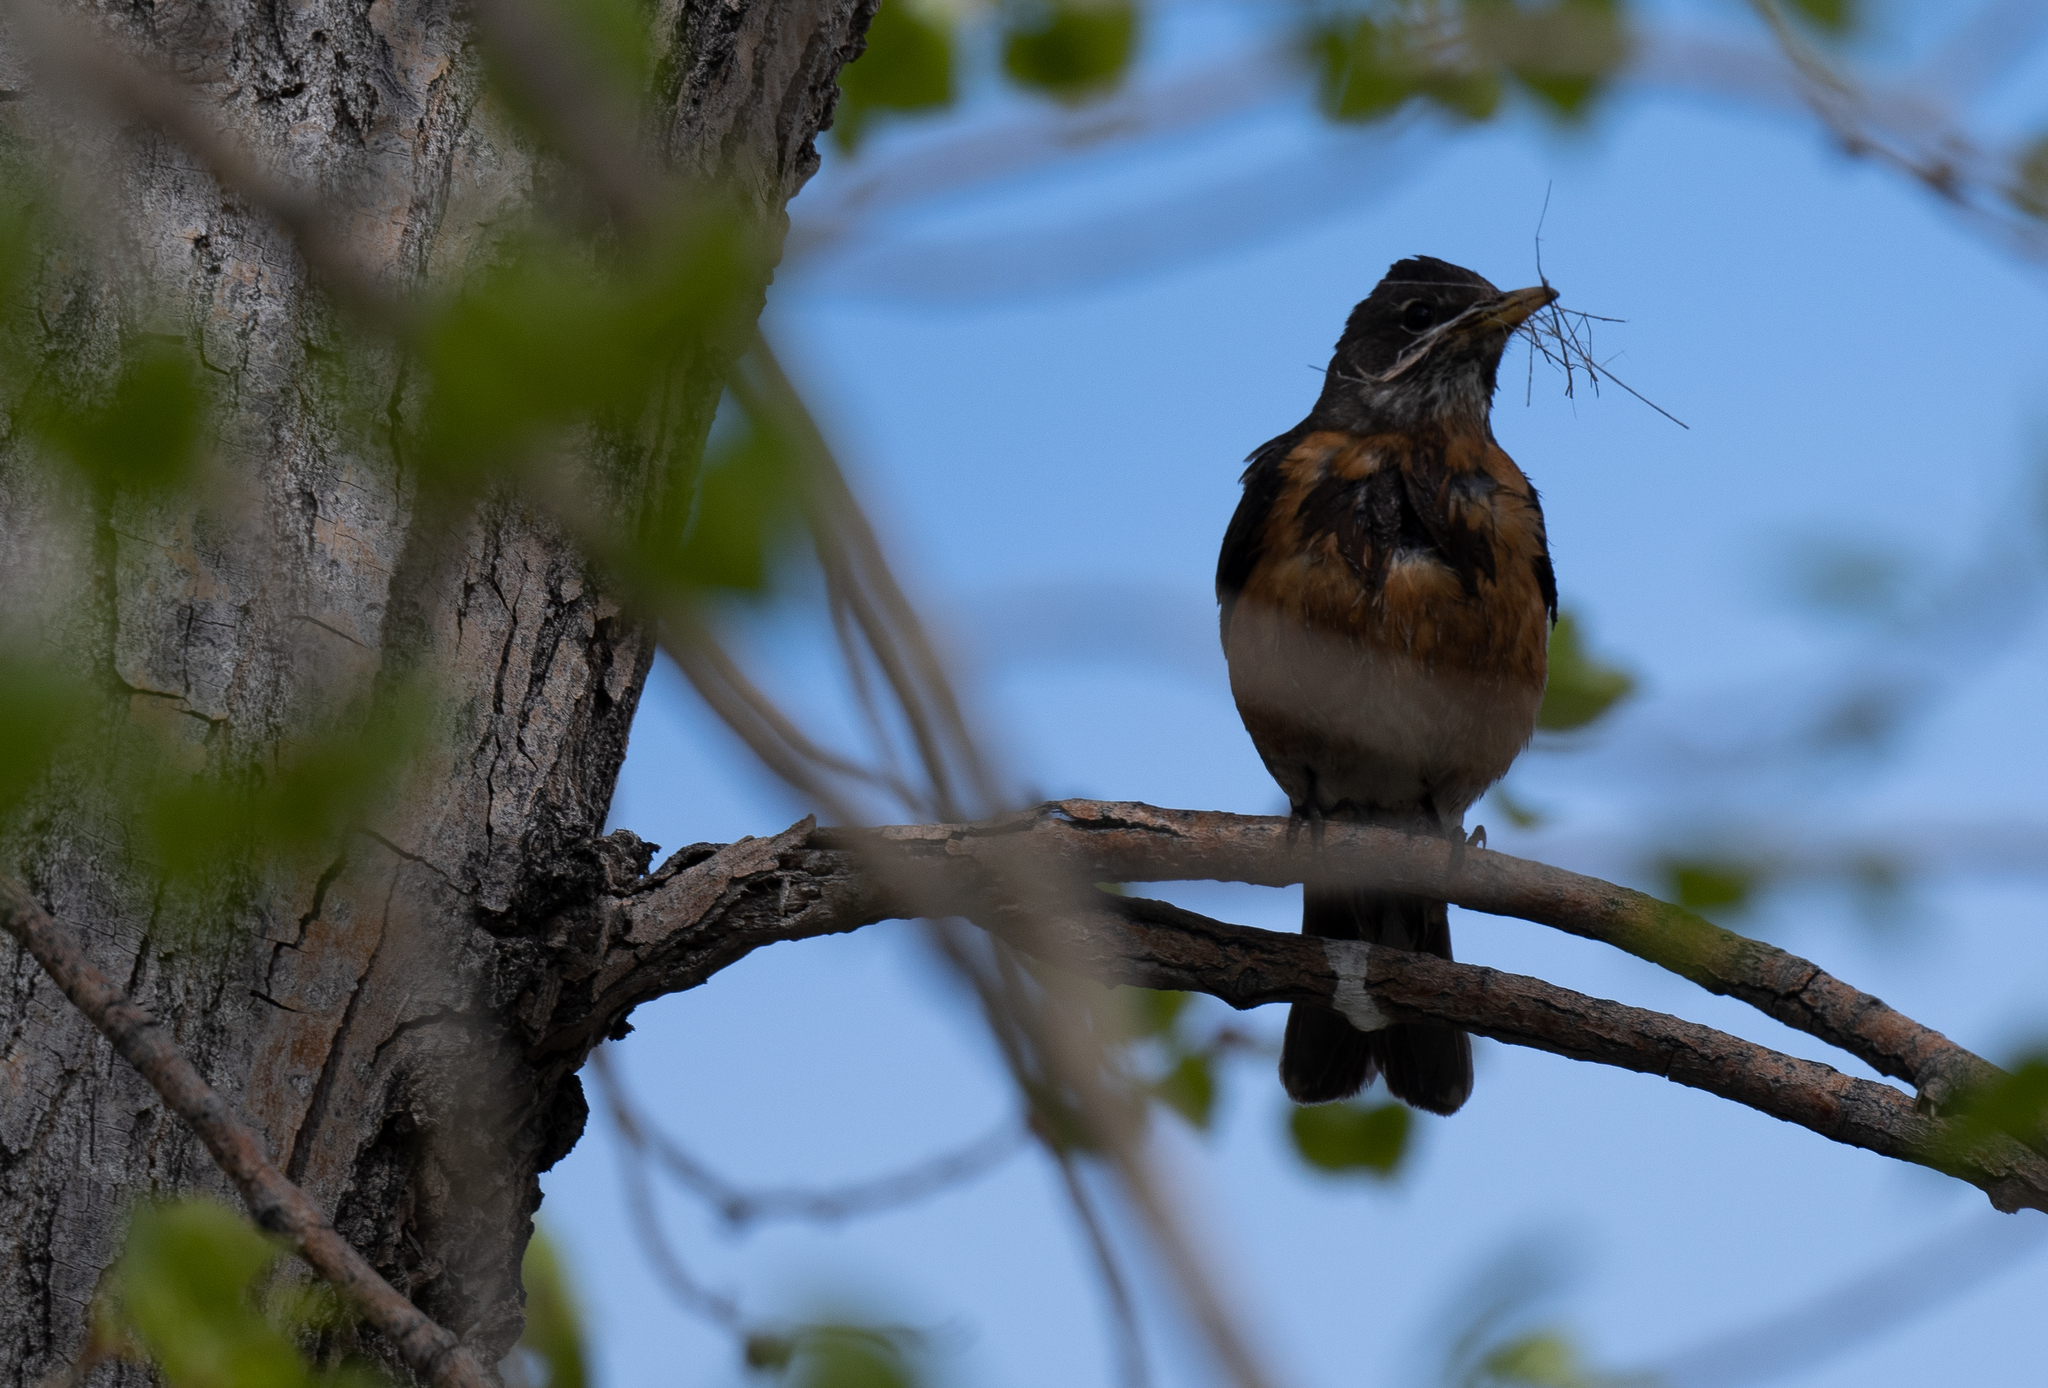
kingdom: Animalia
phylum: Chordata
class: Aves
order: Passeriformes
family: Turdidae
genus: Turdus
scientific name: Turdus migratorius
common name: American robin
